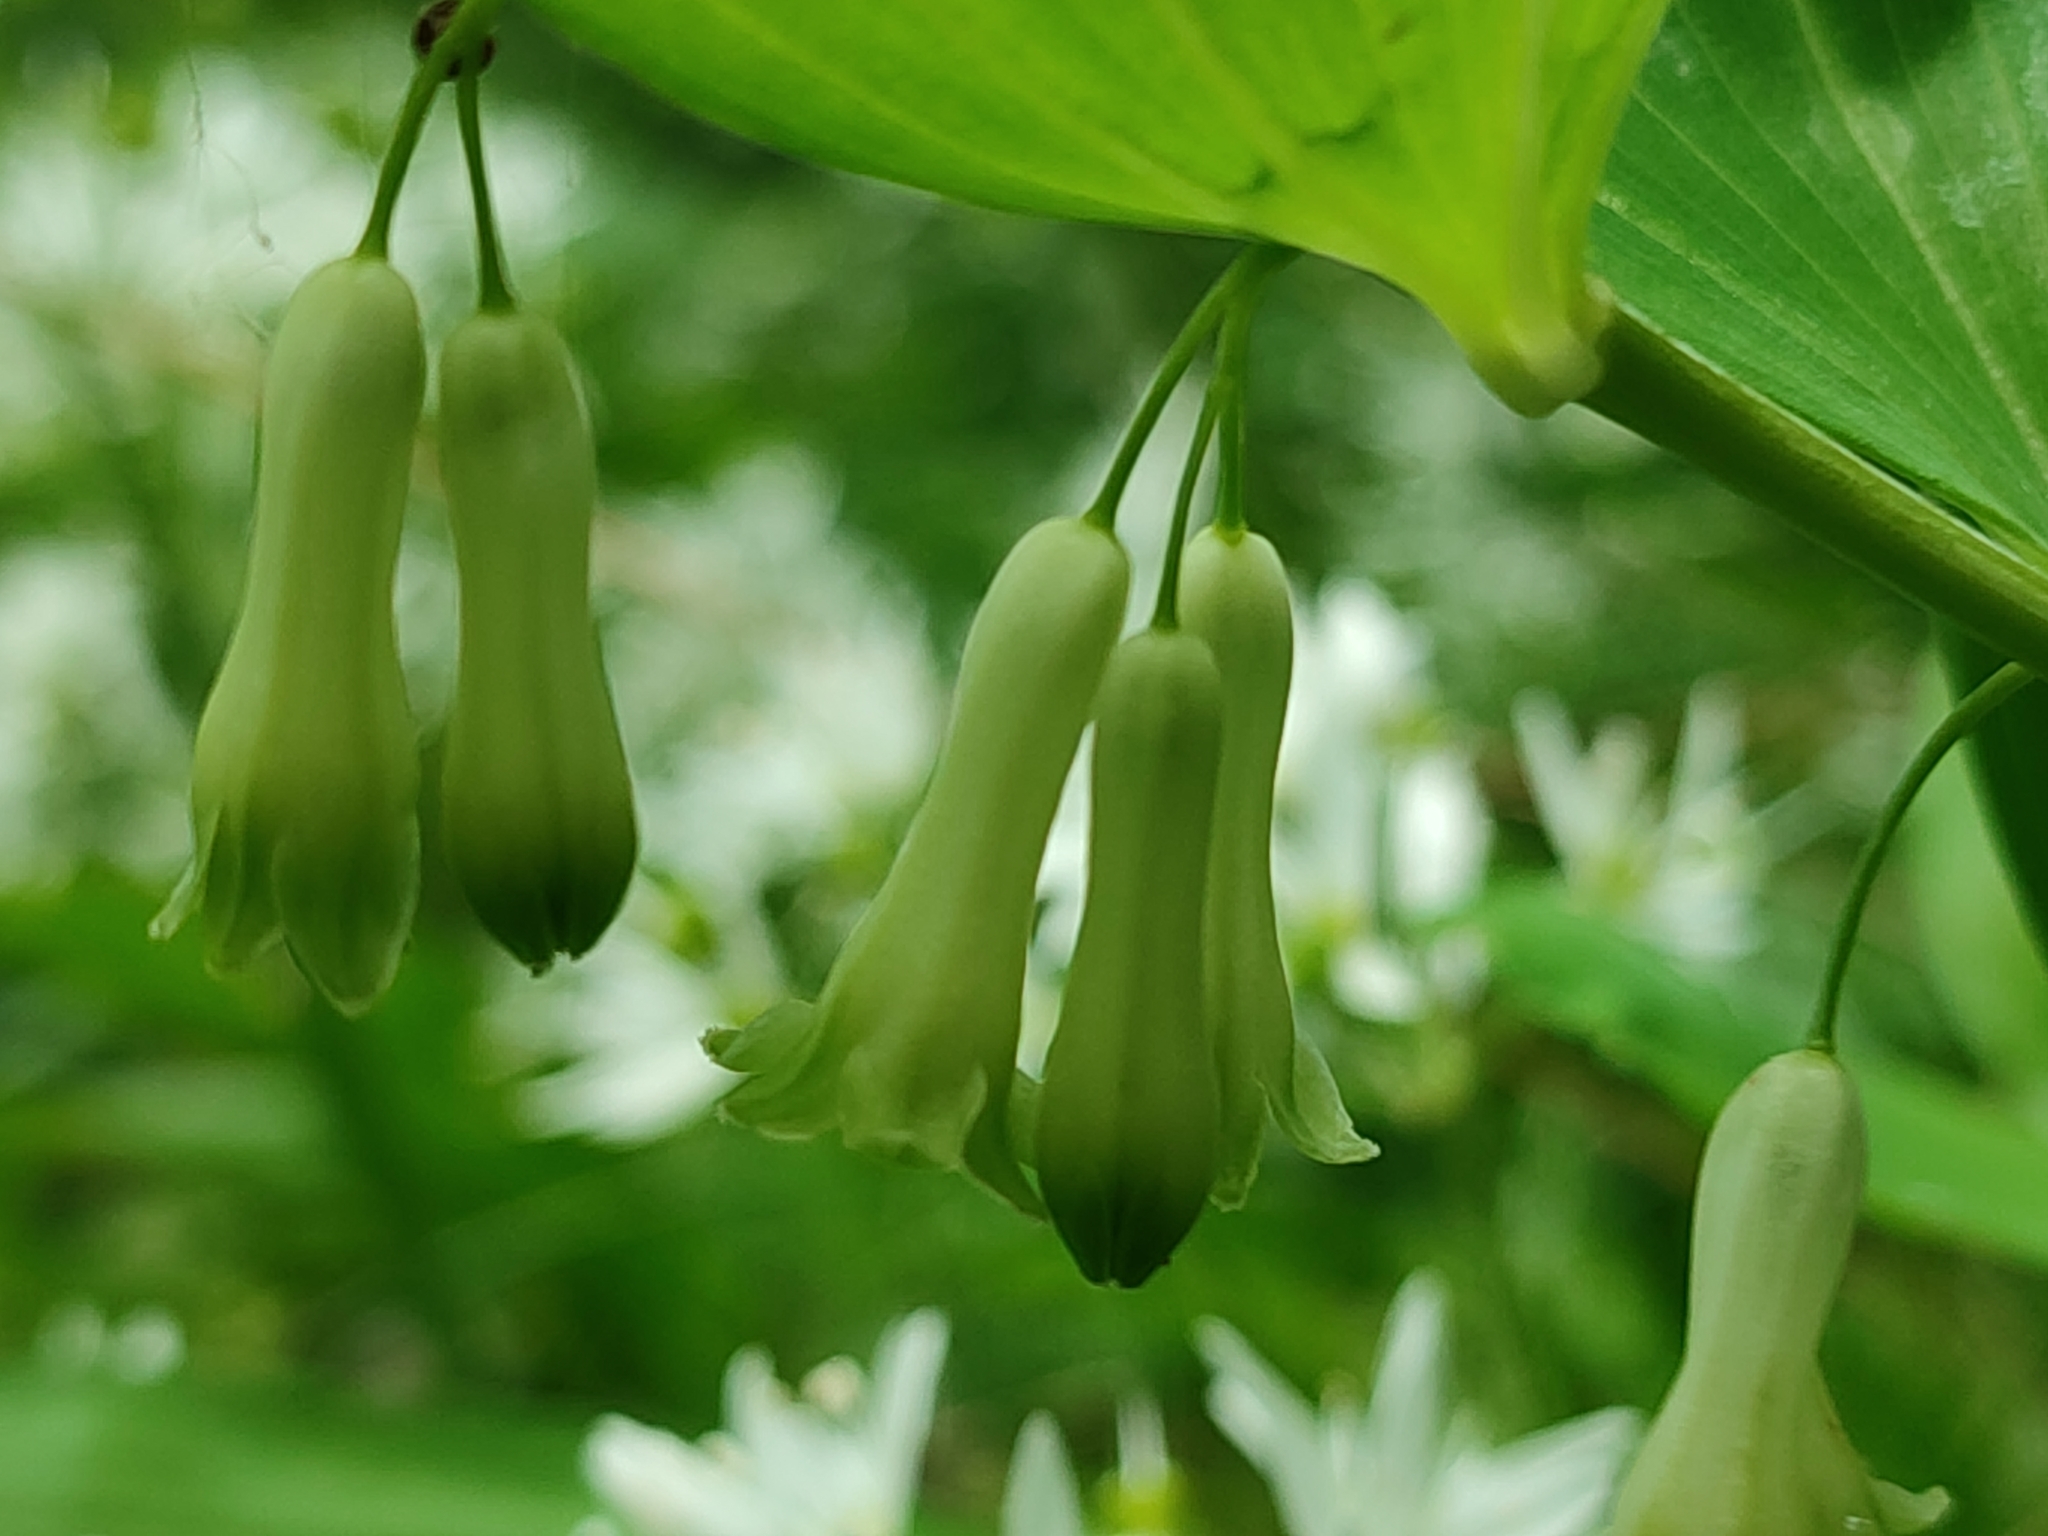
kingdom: Plantae
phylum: Tracheophyta
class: Liliopsida
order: Asparagales
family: Asparagaceae
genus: Polygonatum
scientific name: Polygonatum multiflorum
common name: Solomon's-seal
